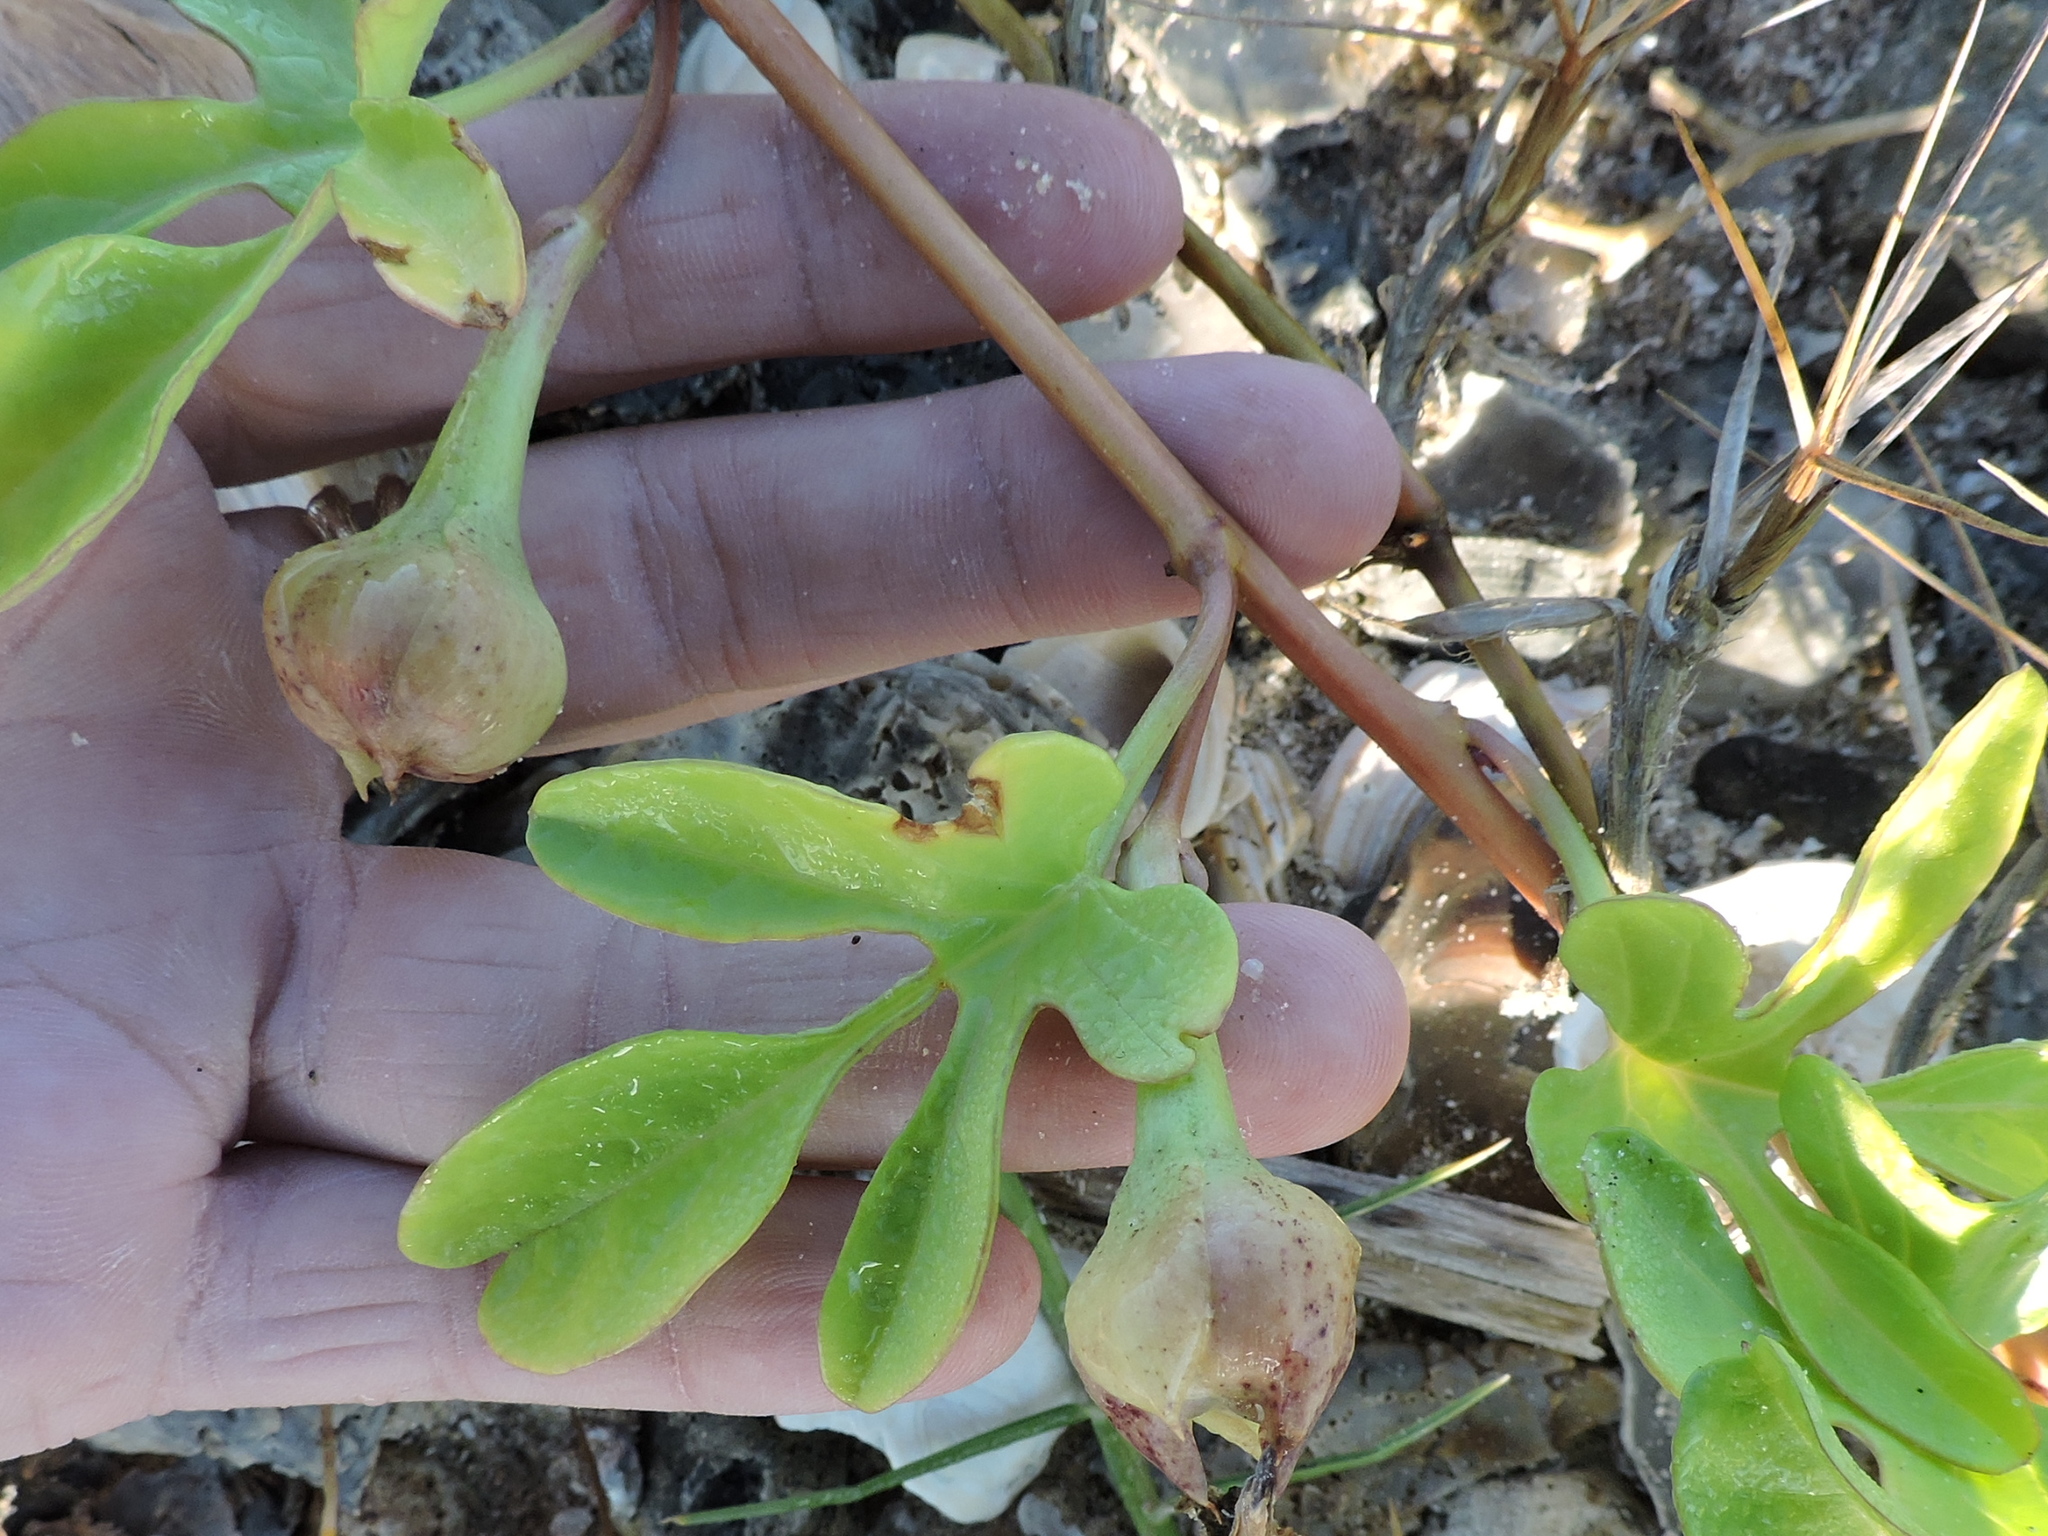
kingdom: Plantae
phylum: Tracheophyta
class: Magnoliopsida
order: Solanales
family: Convolvulaceae
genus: Ipomoea
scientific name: Ipomoea imperati
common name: Fiddle-leaf morning-glory
